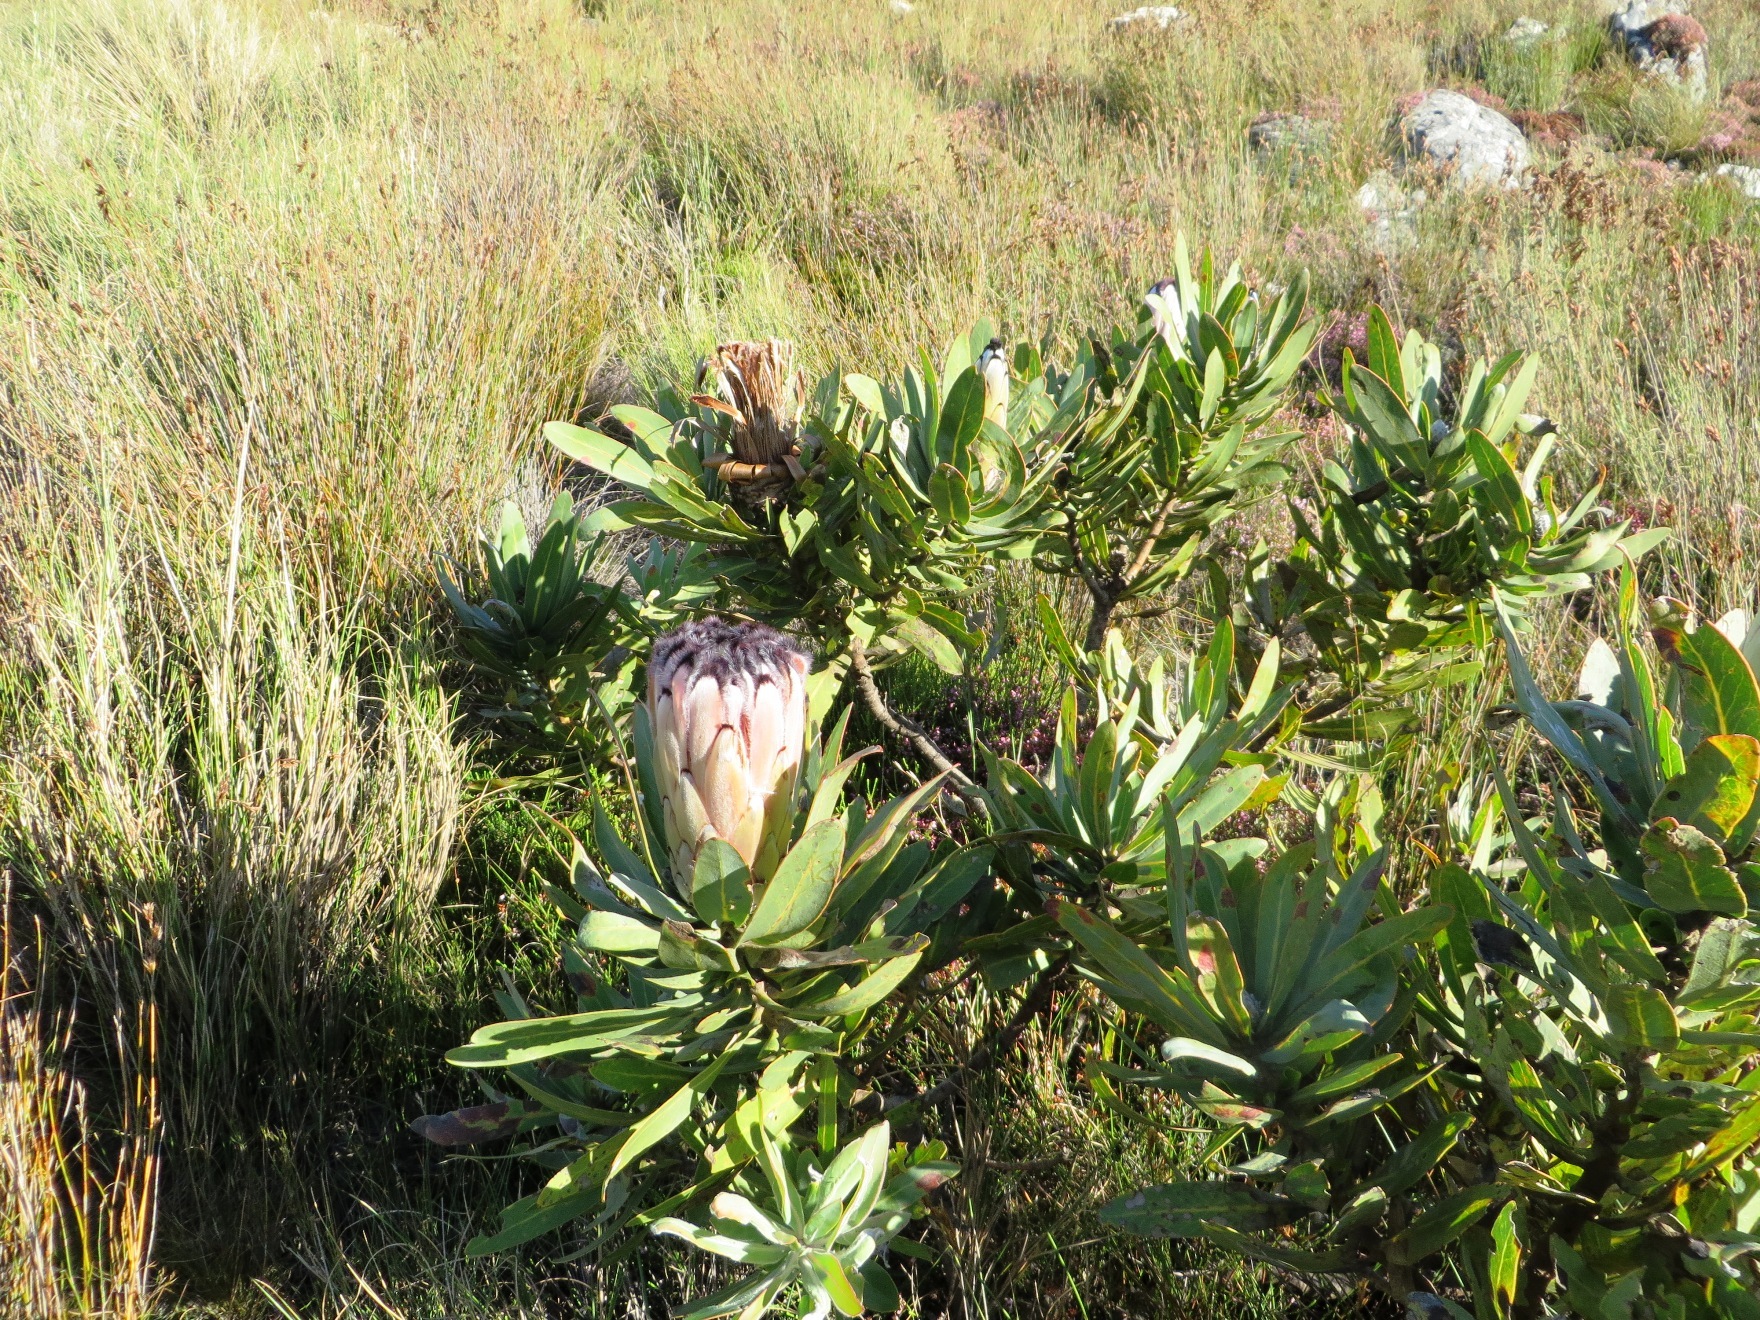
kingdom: Plantae
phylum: Tracheophyta
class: Magnoliopsida
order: Proteales
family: Proteaceae
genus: Protea
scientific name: Protea neriifolia
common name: Blue sugarbush
